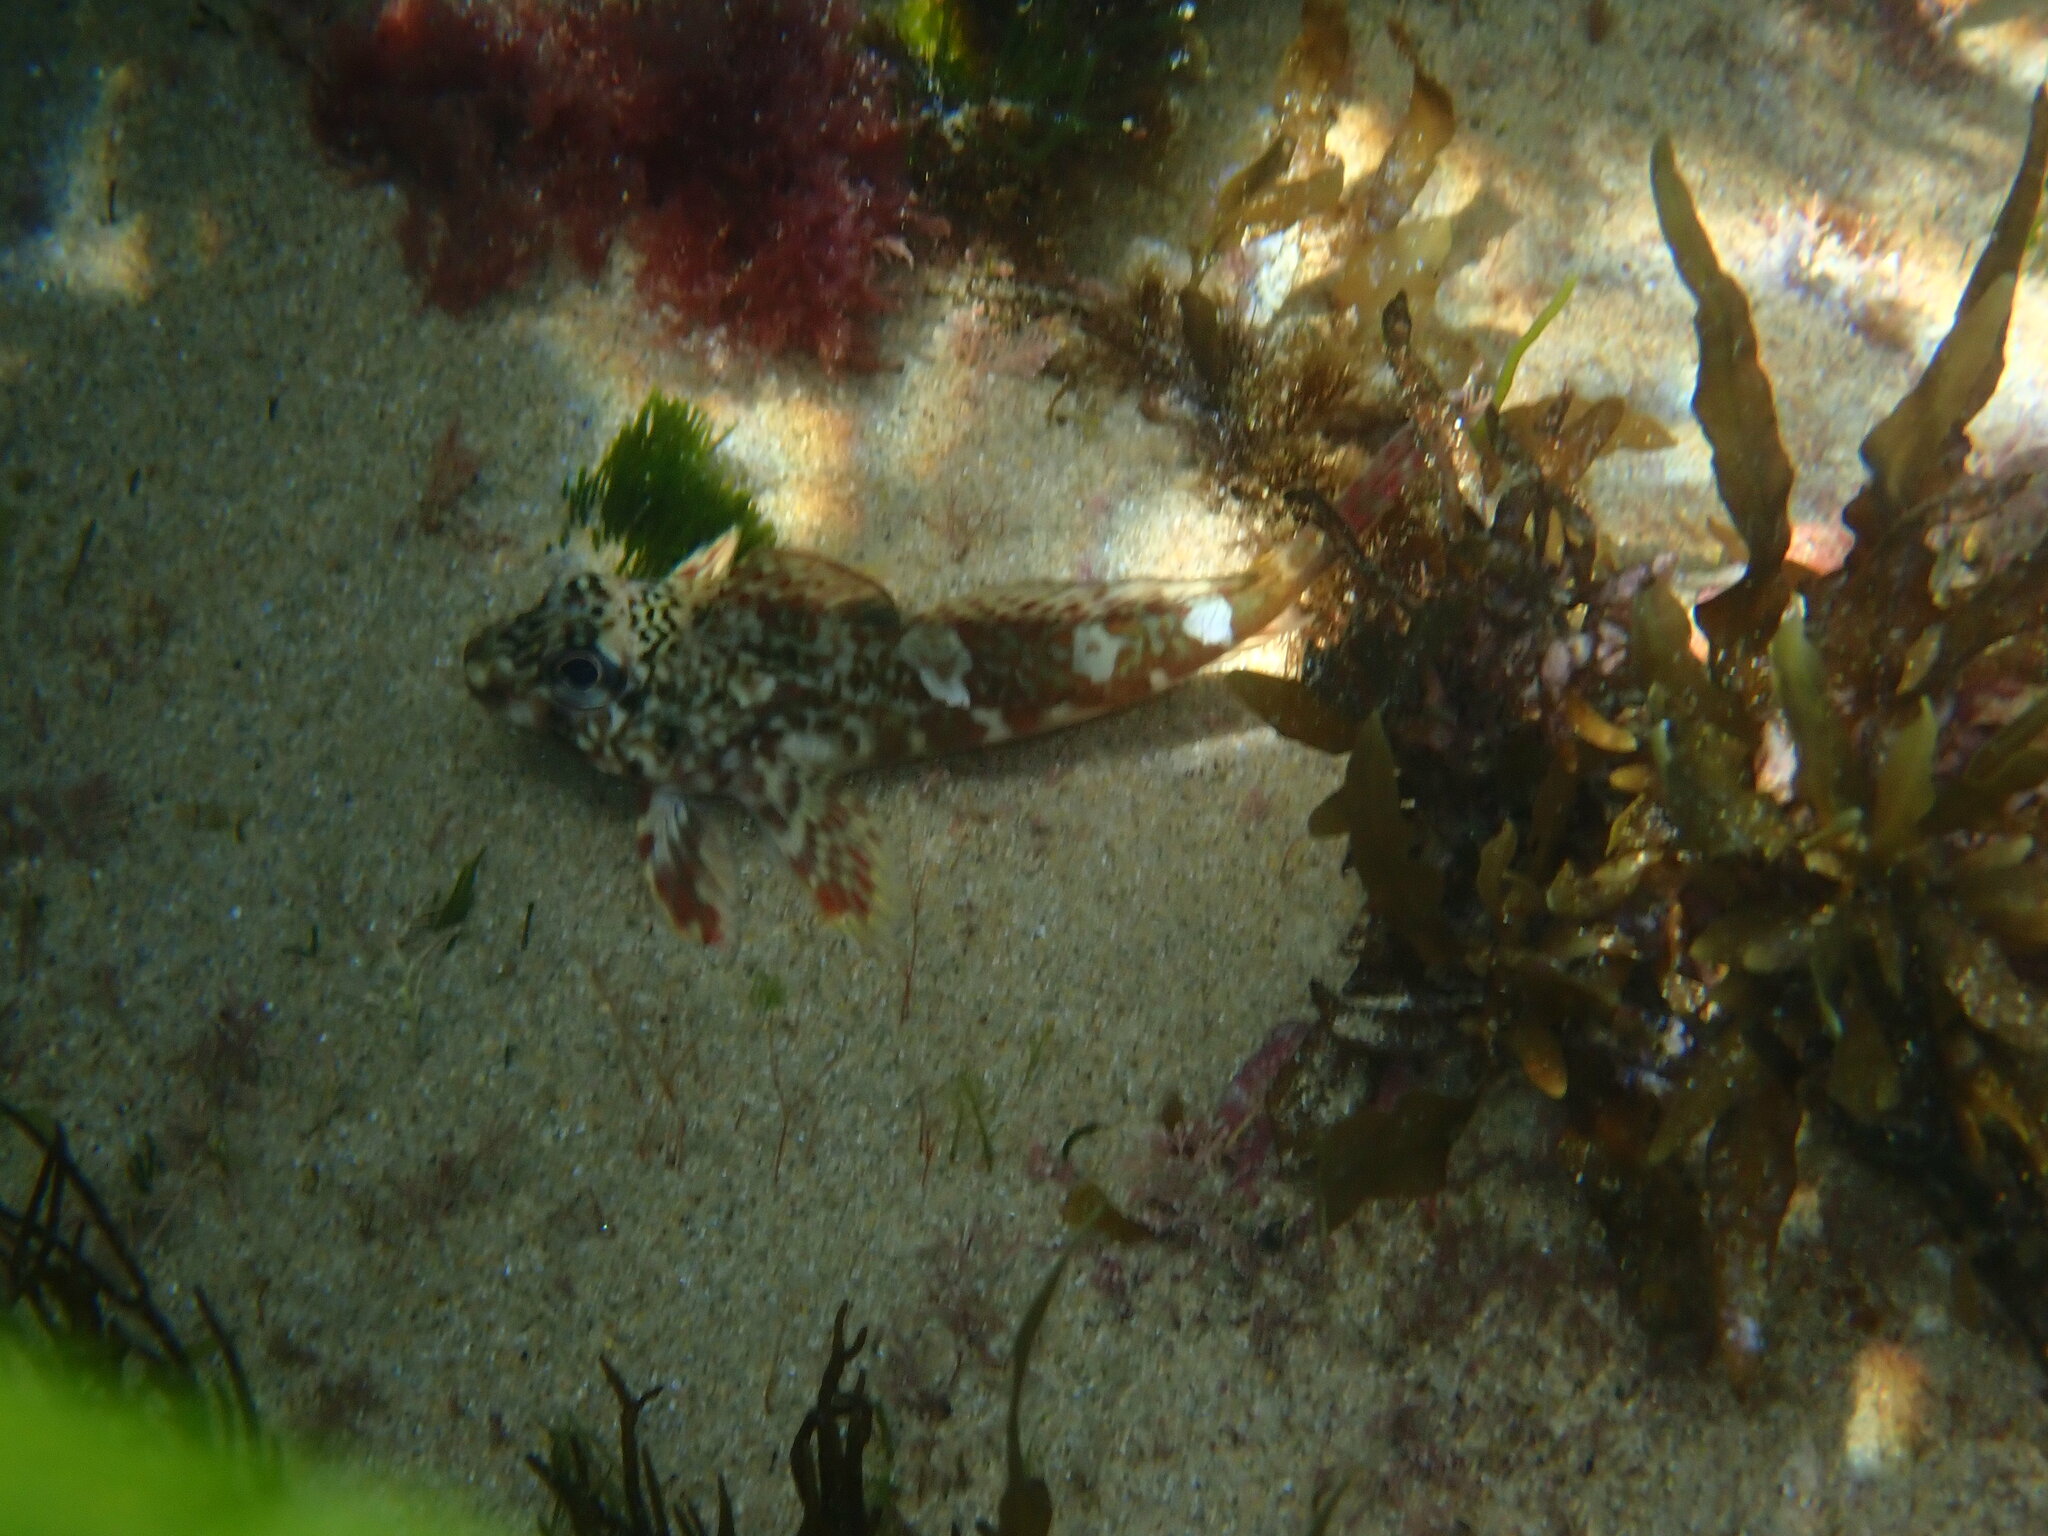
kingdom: Animalia
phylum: Chordata
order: Perciformes
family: Bovichtidae
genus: Bovichtus
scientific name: Bovichtus angustifrons
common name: Dragonet
